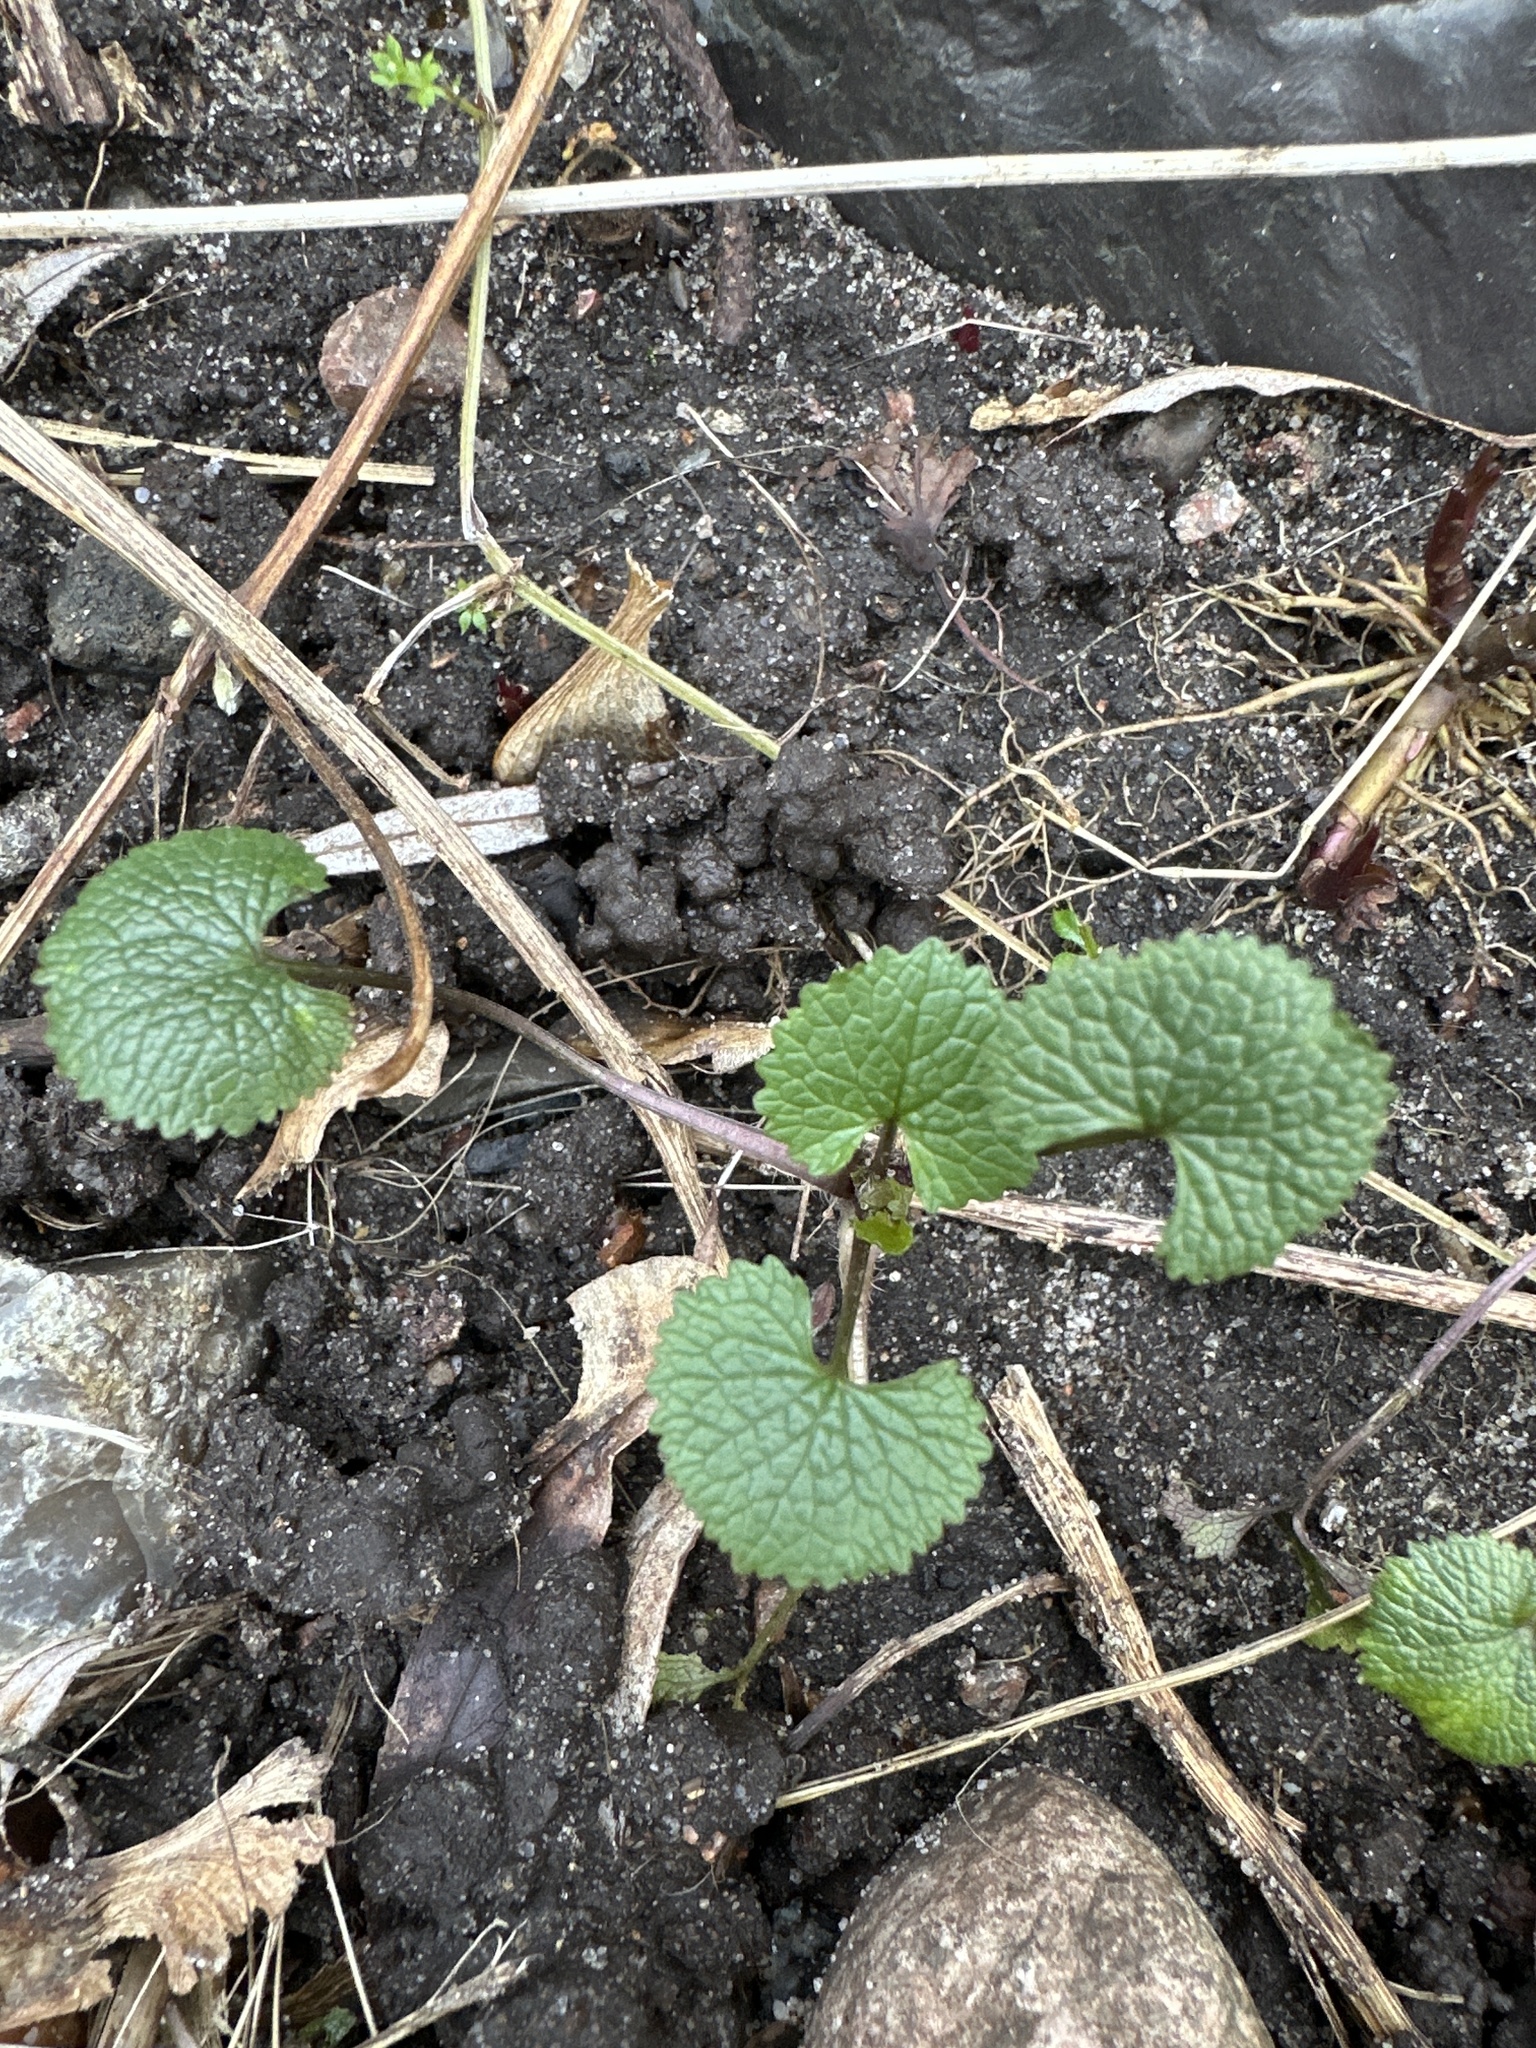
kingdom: Plantae
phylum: Tracheophyta
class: Magnoliopsida
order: Brassicales
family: Brassicaceae
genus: Alliaria
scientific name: Alliaria petiolata
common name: Garlic mustard
